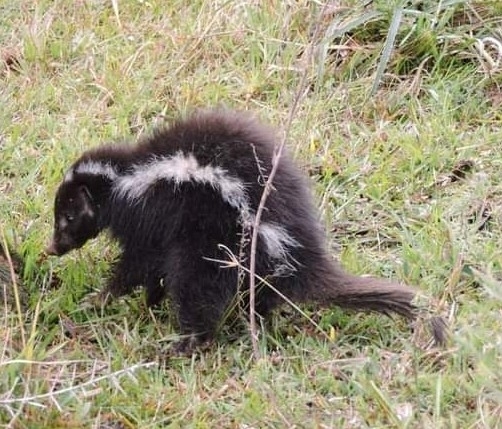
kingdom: Animalia
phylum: Chordata
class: Mammalia
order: Carnivora
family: Mephitidae
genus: Conepatus
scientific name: Conepatus chinga
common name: Molina's hog-nosed skunk
